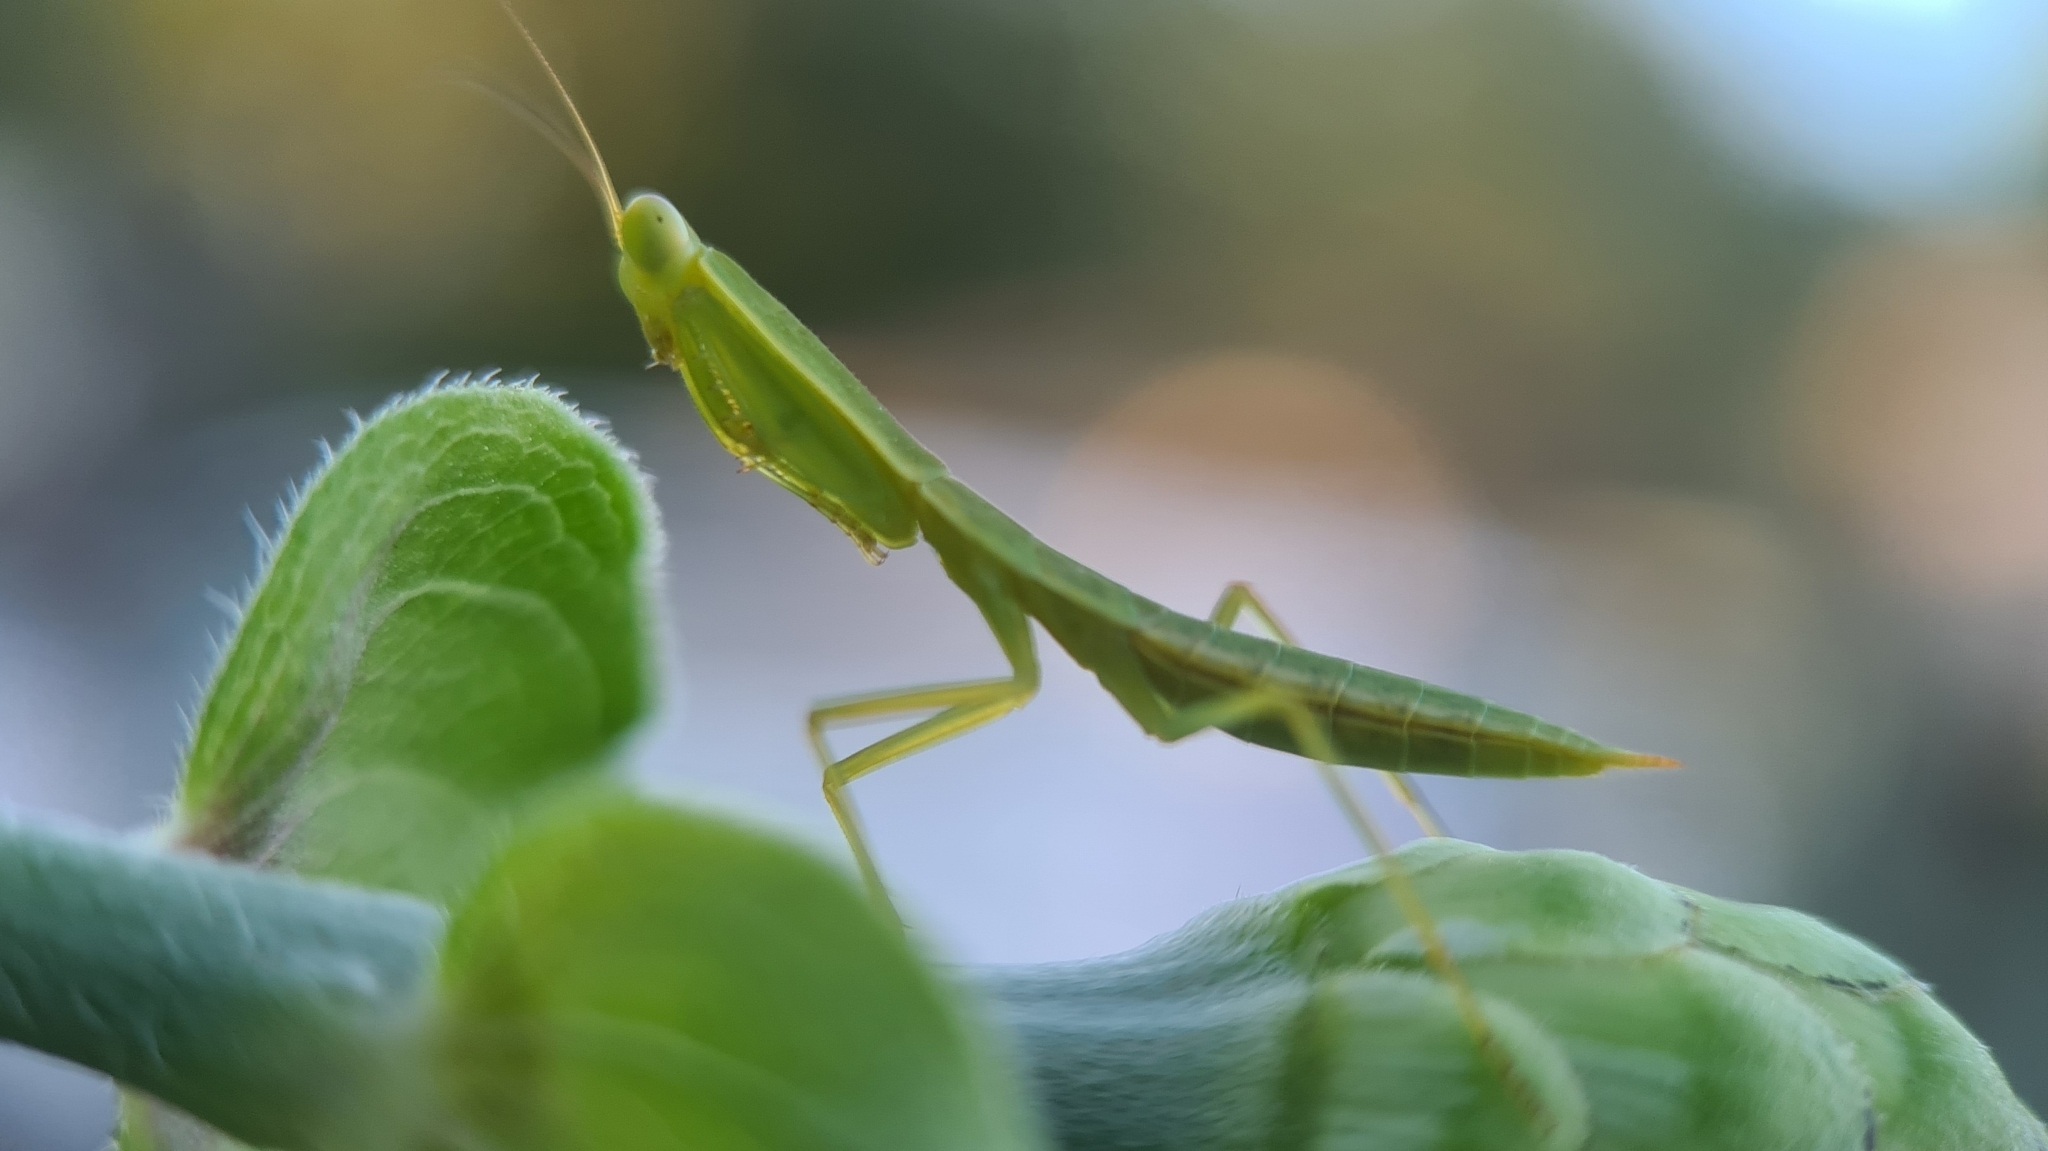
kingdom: Animalia
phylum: Arthropoda
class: Insecta
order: Mantodea
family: Mantidae
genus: Orthodera
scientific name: Orthodera ministralis
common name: Mantis
